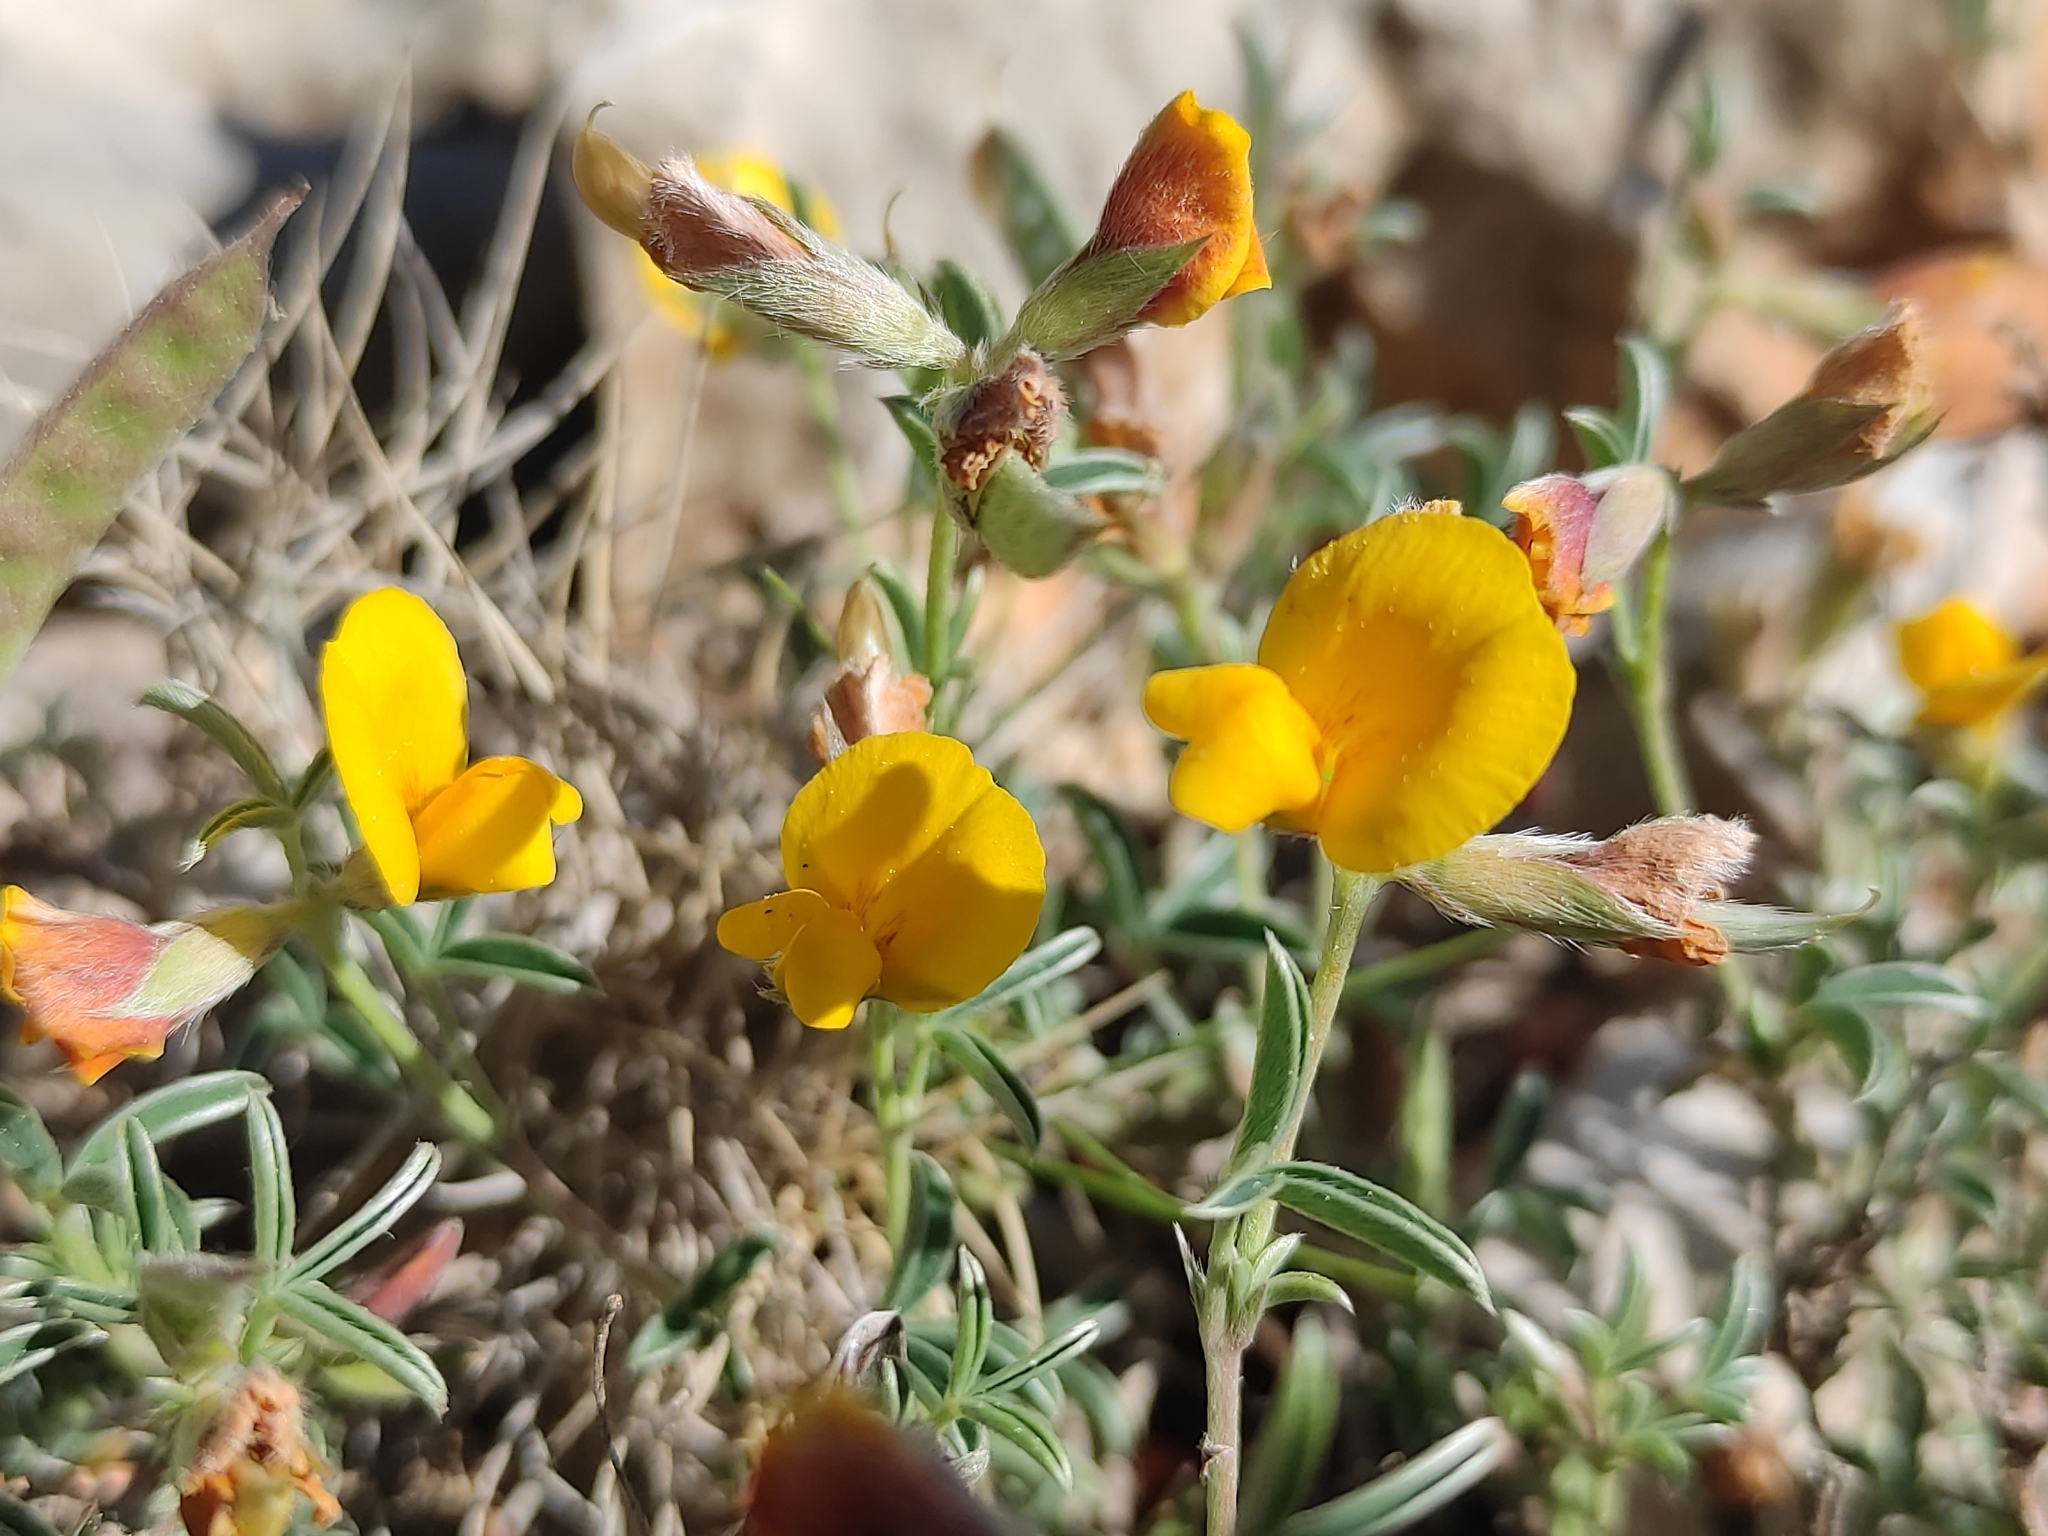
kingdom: Plantae
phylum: Tracheophyta
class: Magnoliopsida
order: Fabales
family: Fabaceae
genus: Argyrolobium
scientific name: Argyrolobium zanonii
